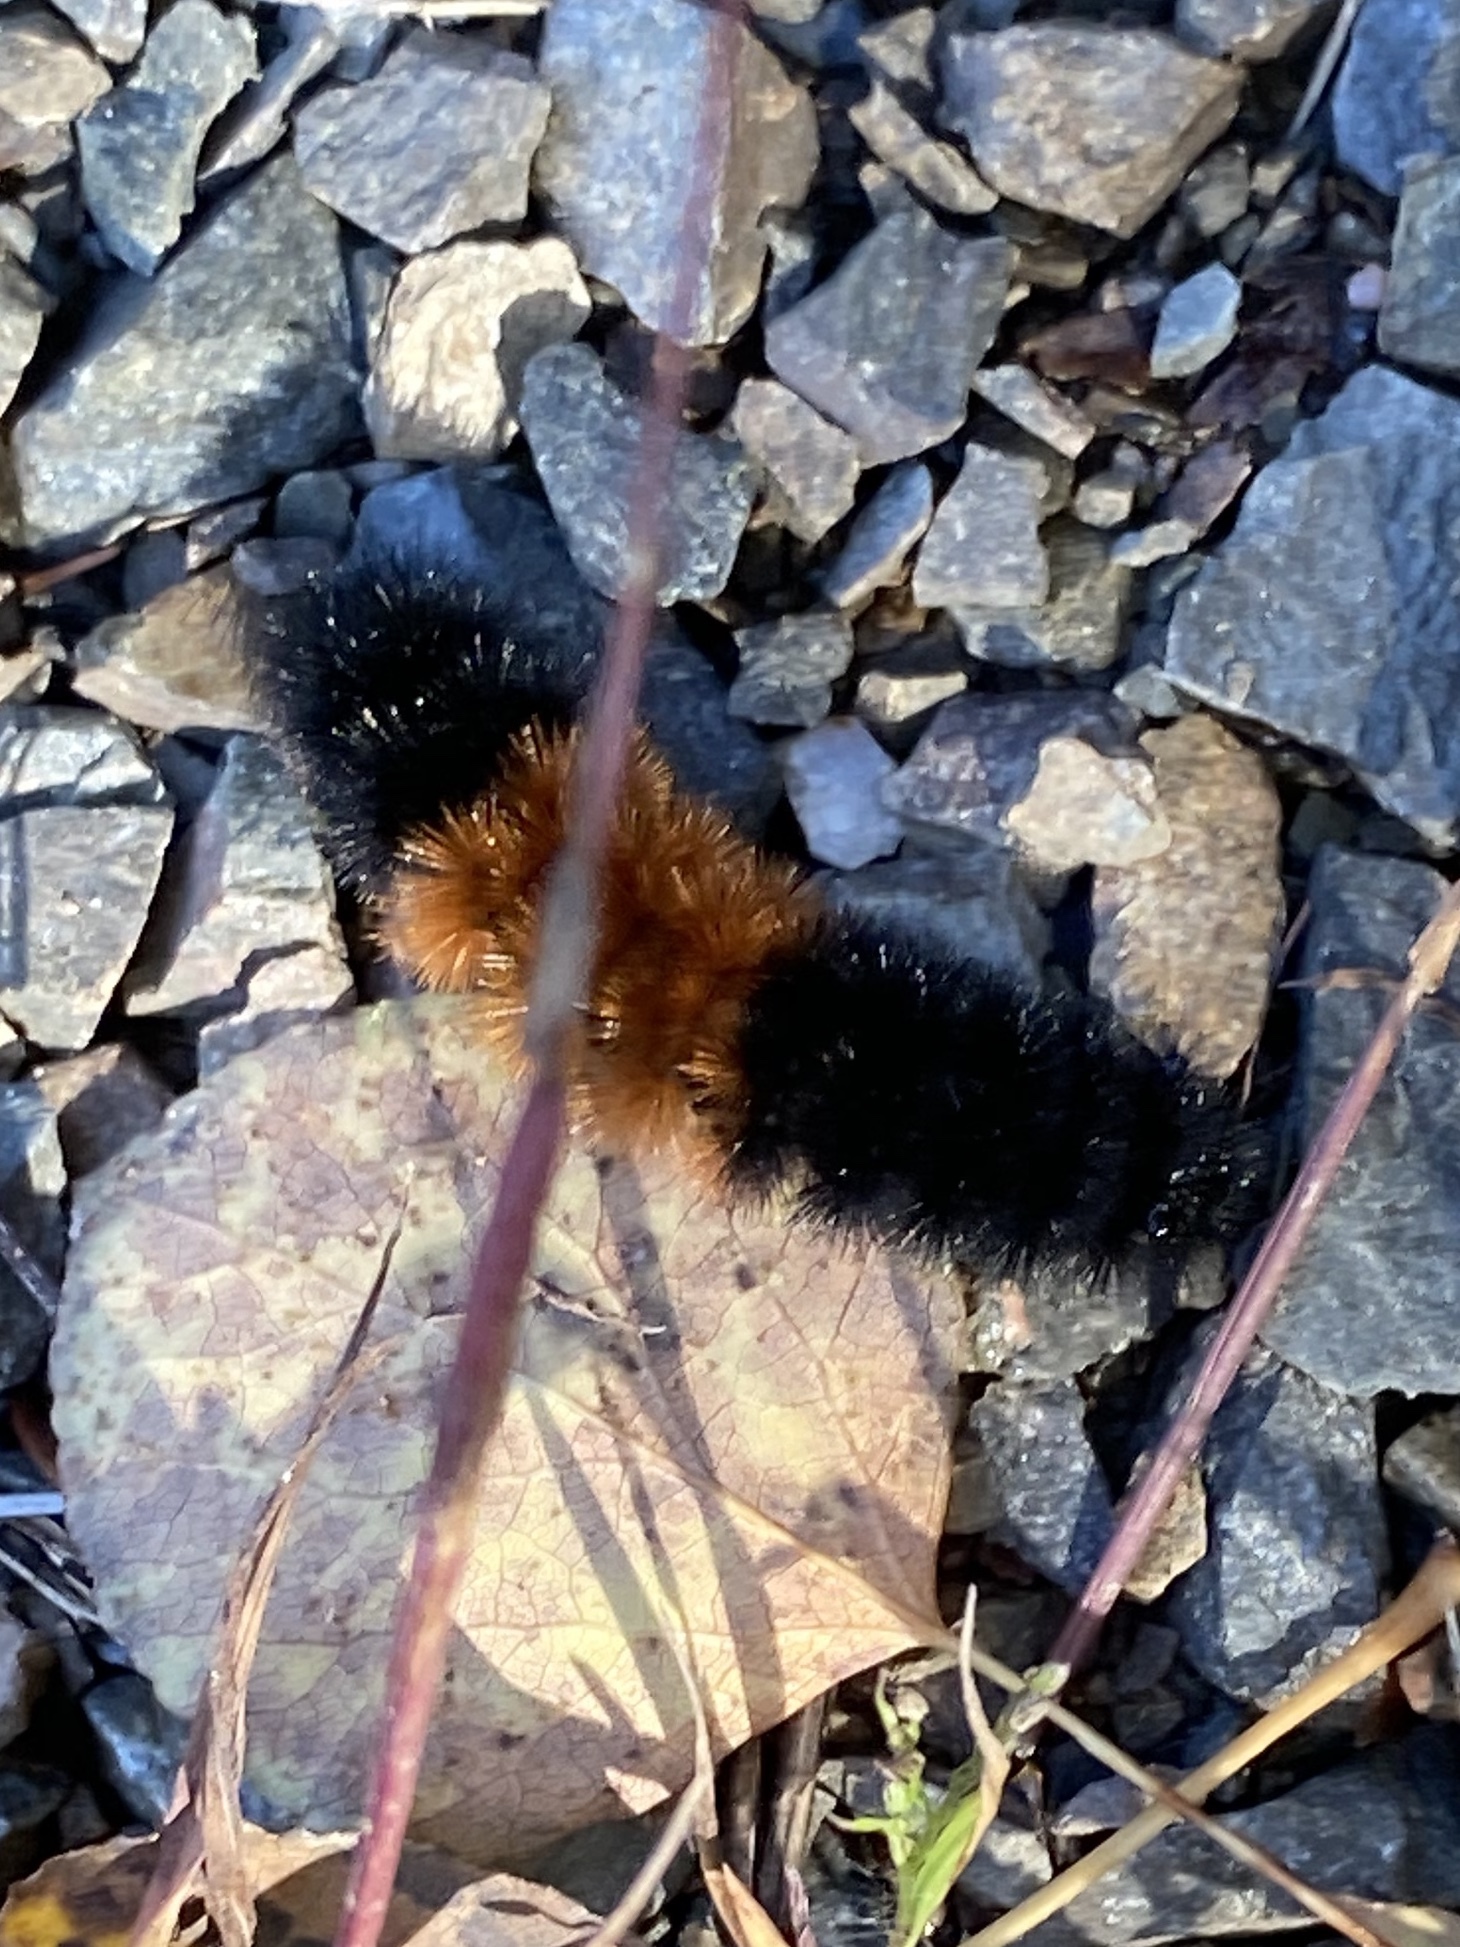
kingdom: Animalia
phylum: Arthropoda
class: Insecta
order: Lepidoptera
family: Erebidae
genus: Pyrrharctia
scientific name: Pyrrharctia isabella
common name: Isabella tiger moth
